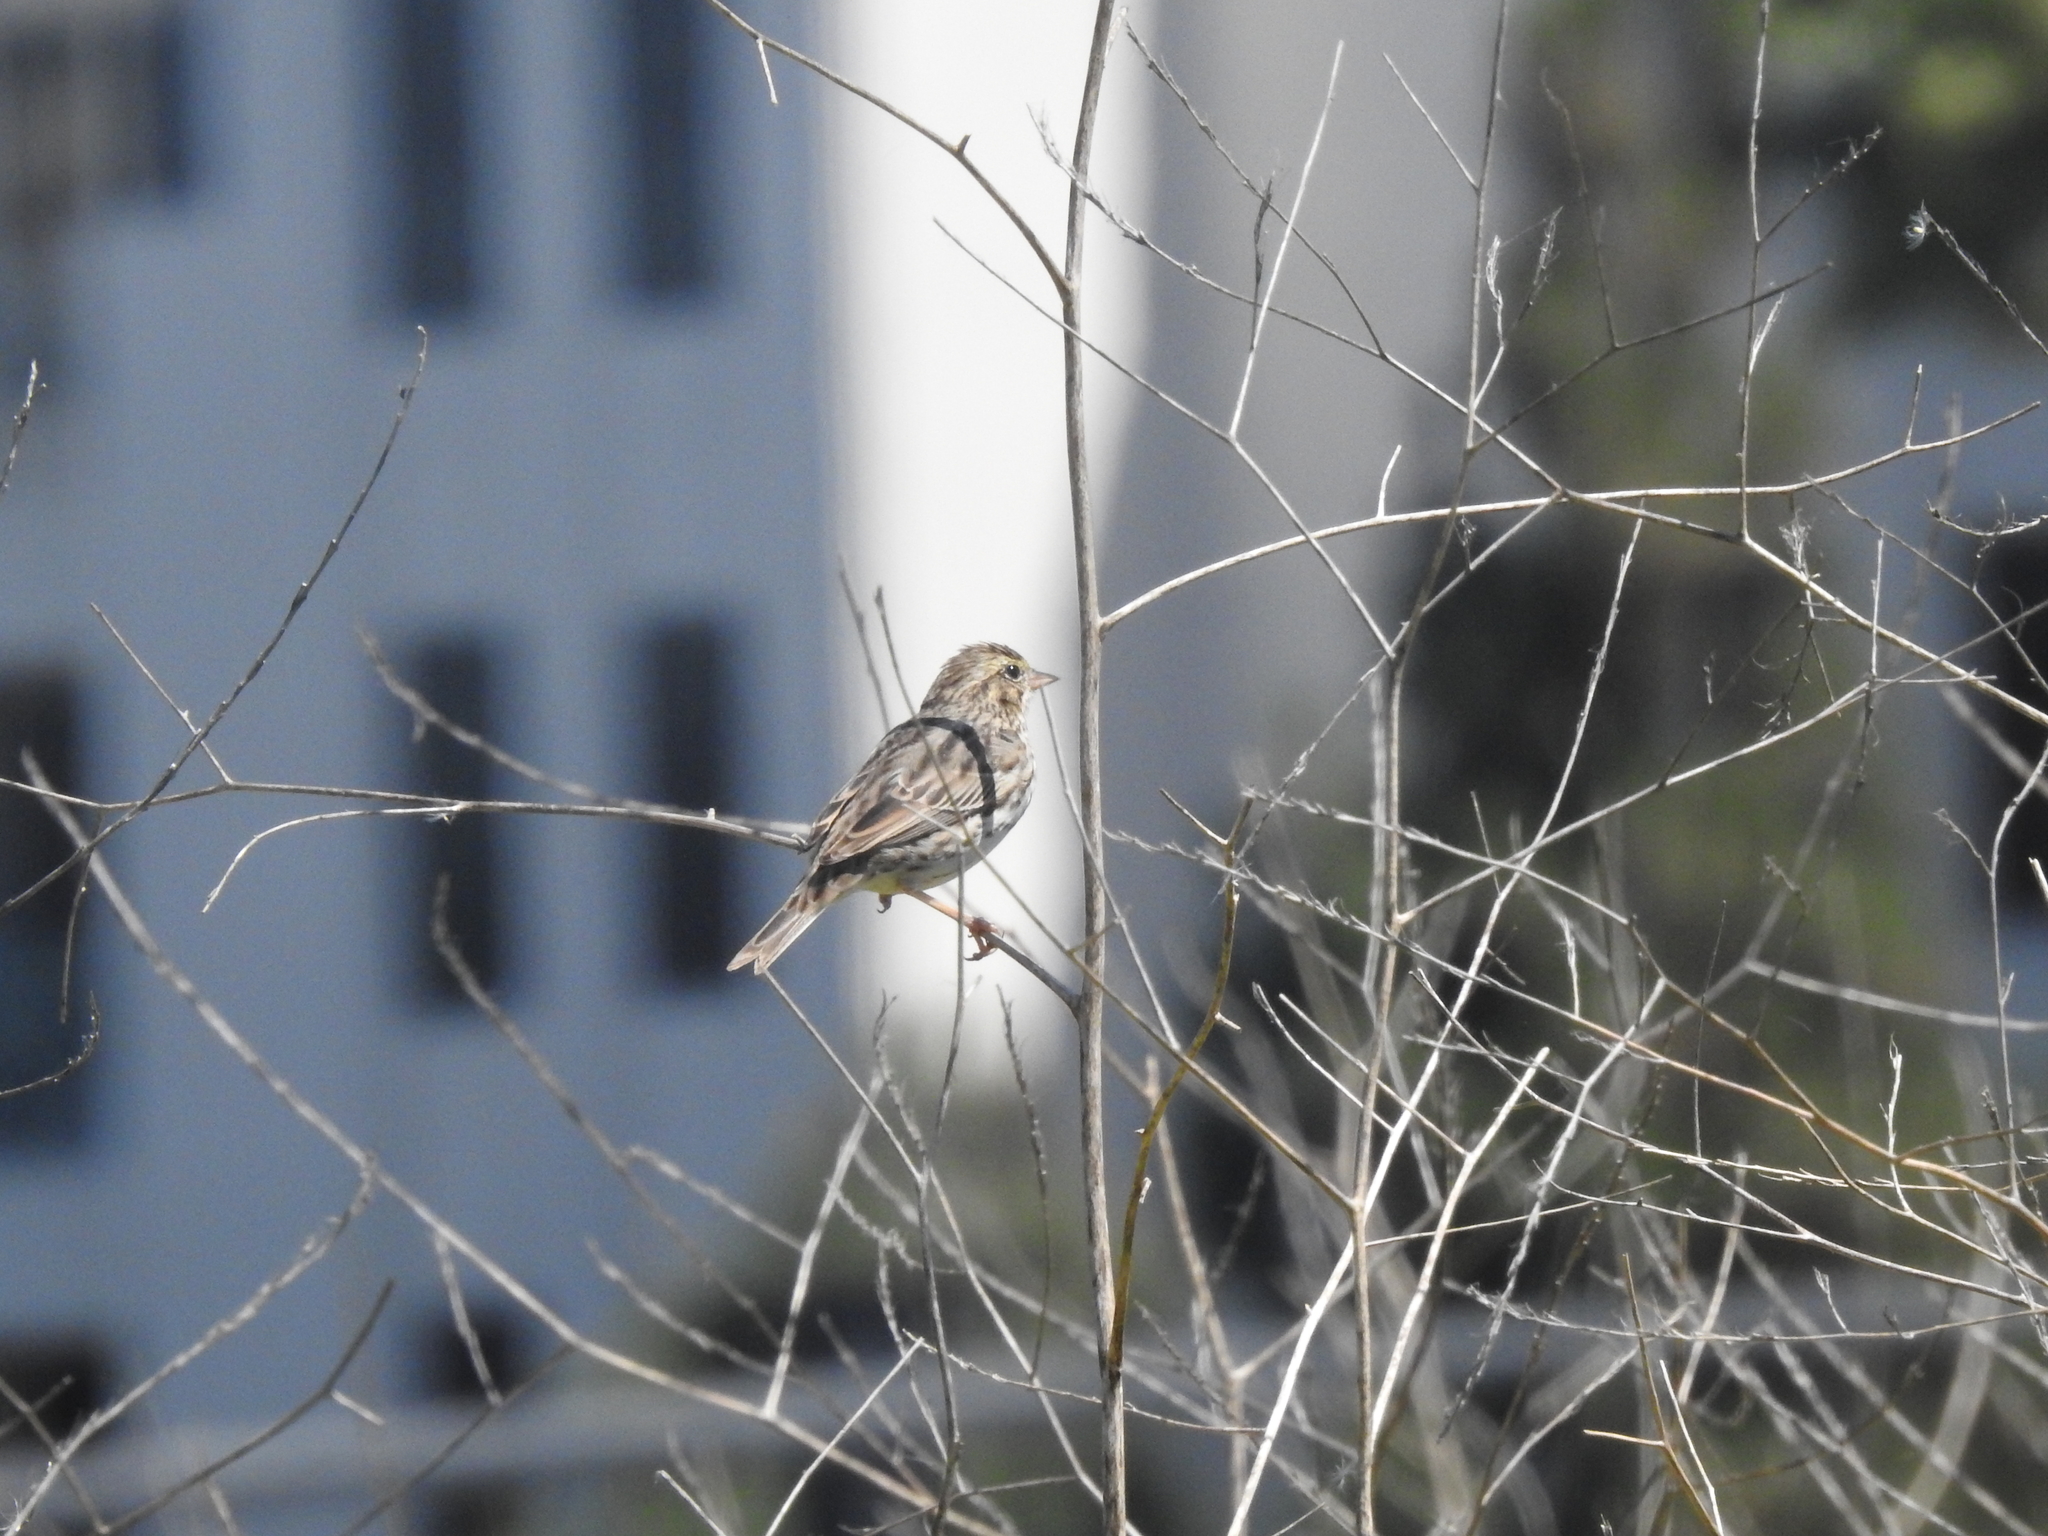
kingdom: Animalia
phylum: Chordata
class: Aves
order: Passeriformes
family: Passerellidae
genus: Passerculus
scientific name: Passerculus sandwichensis
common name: Savannah sparrow
